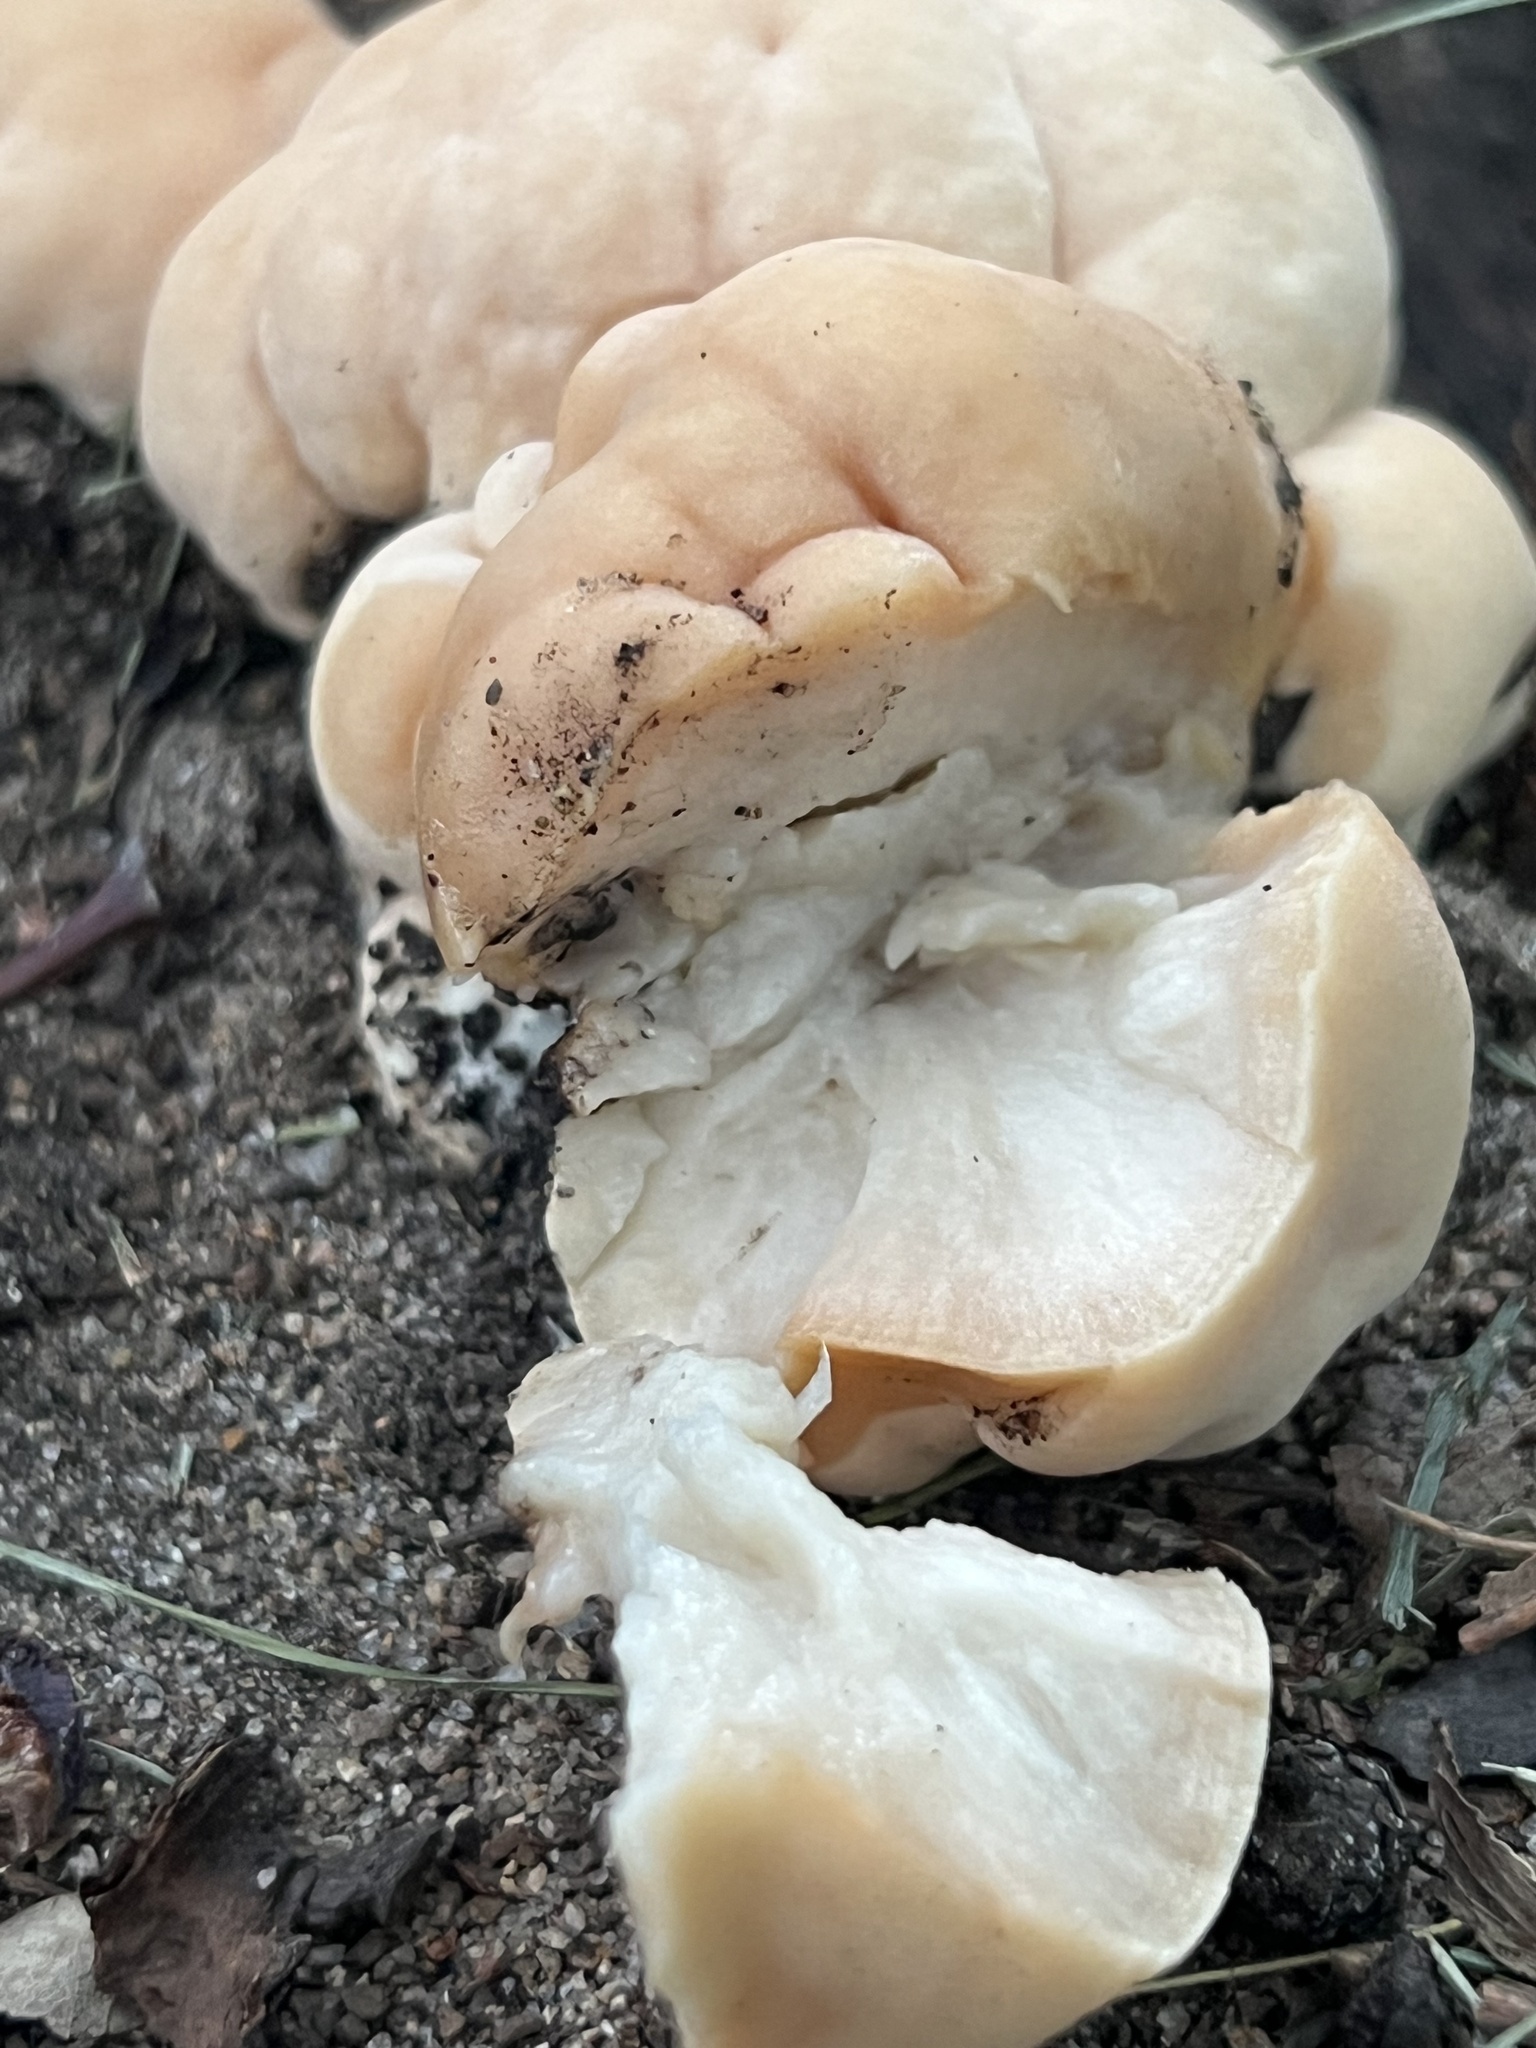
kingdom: Fungi
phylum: Basidiomycota
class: Agaricomycetes
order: Hymenochaetales
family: Hymenochaetaceae
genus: Pseudoinonotus
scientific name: Pseudoinonotus dryadeus
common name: Oak bracket
